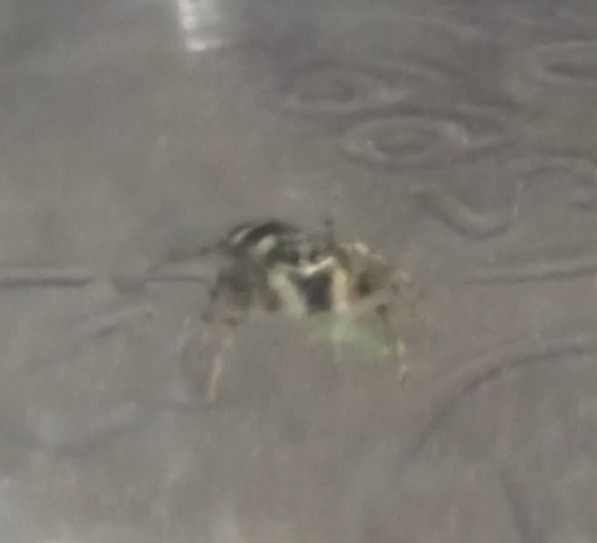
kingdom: Animalia
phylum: Arthropoda
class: Arachnida
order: Araneae
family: Salticidae
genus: Salticus
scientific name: Salticus scenicus
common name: Zebra jumper
